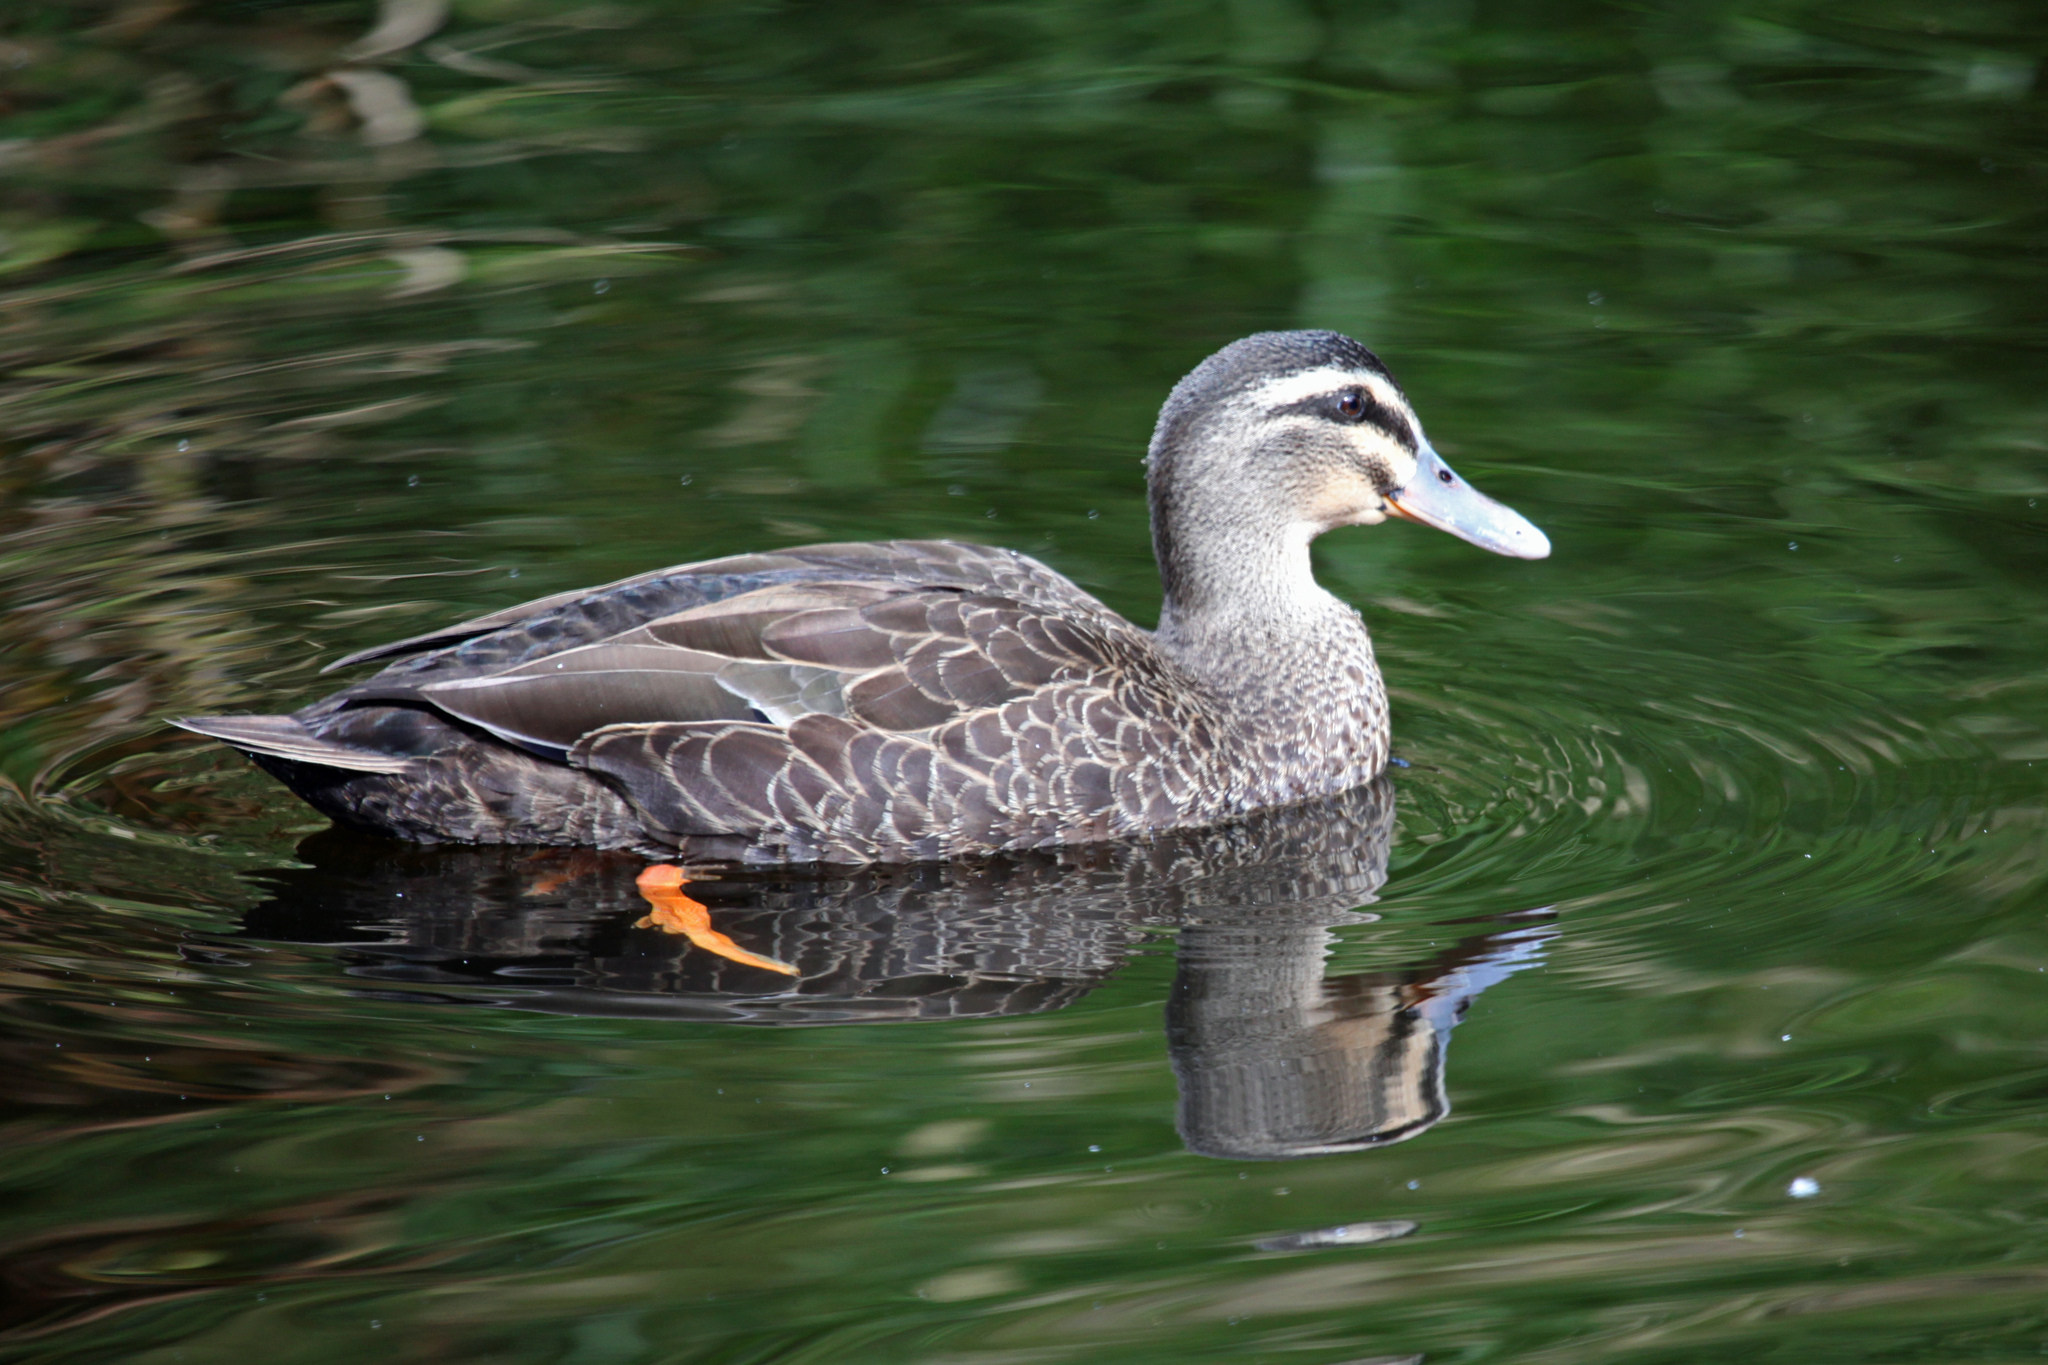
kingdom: Animalia
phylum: Chordata
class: Aves
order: Anseriformes
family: Anatidae
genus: Anas
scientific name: Anas
